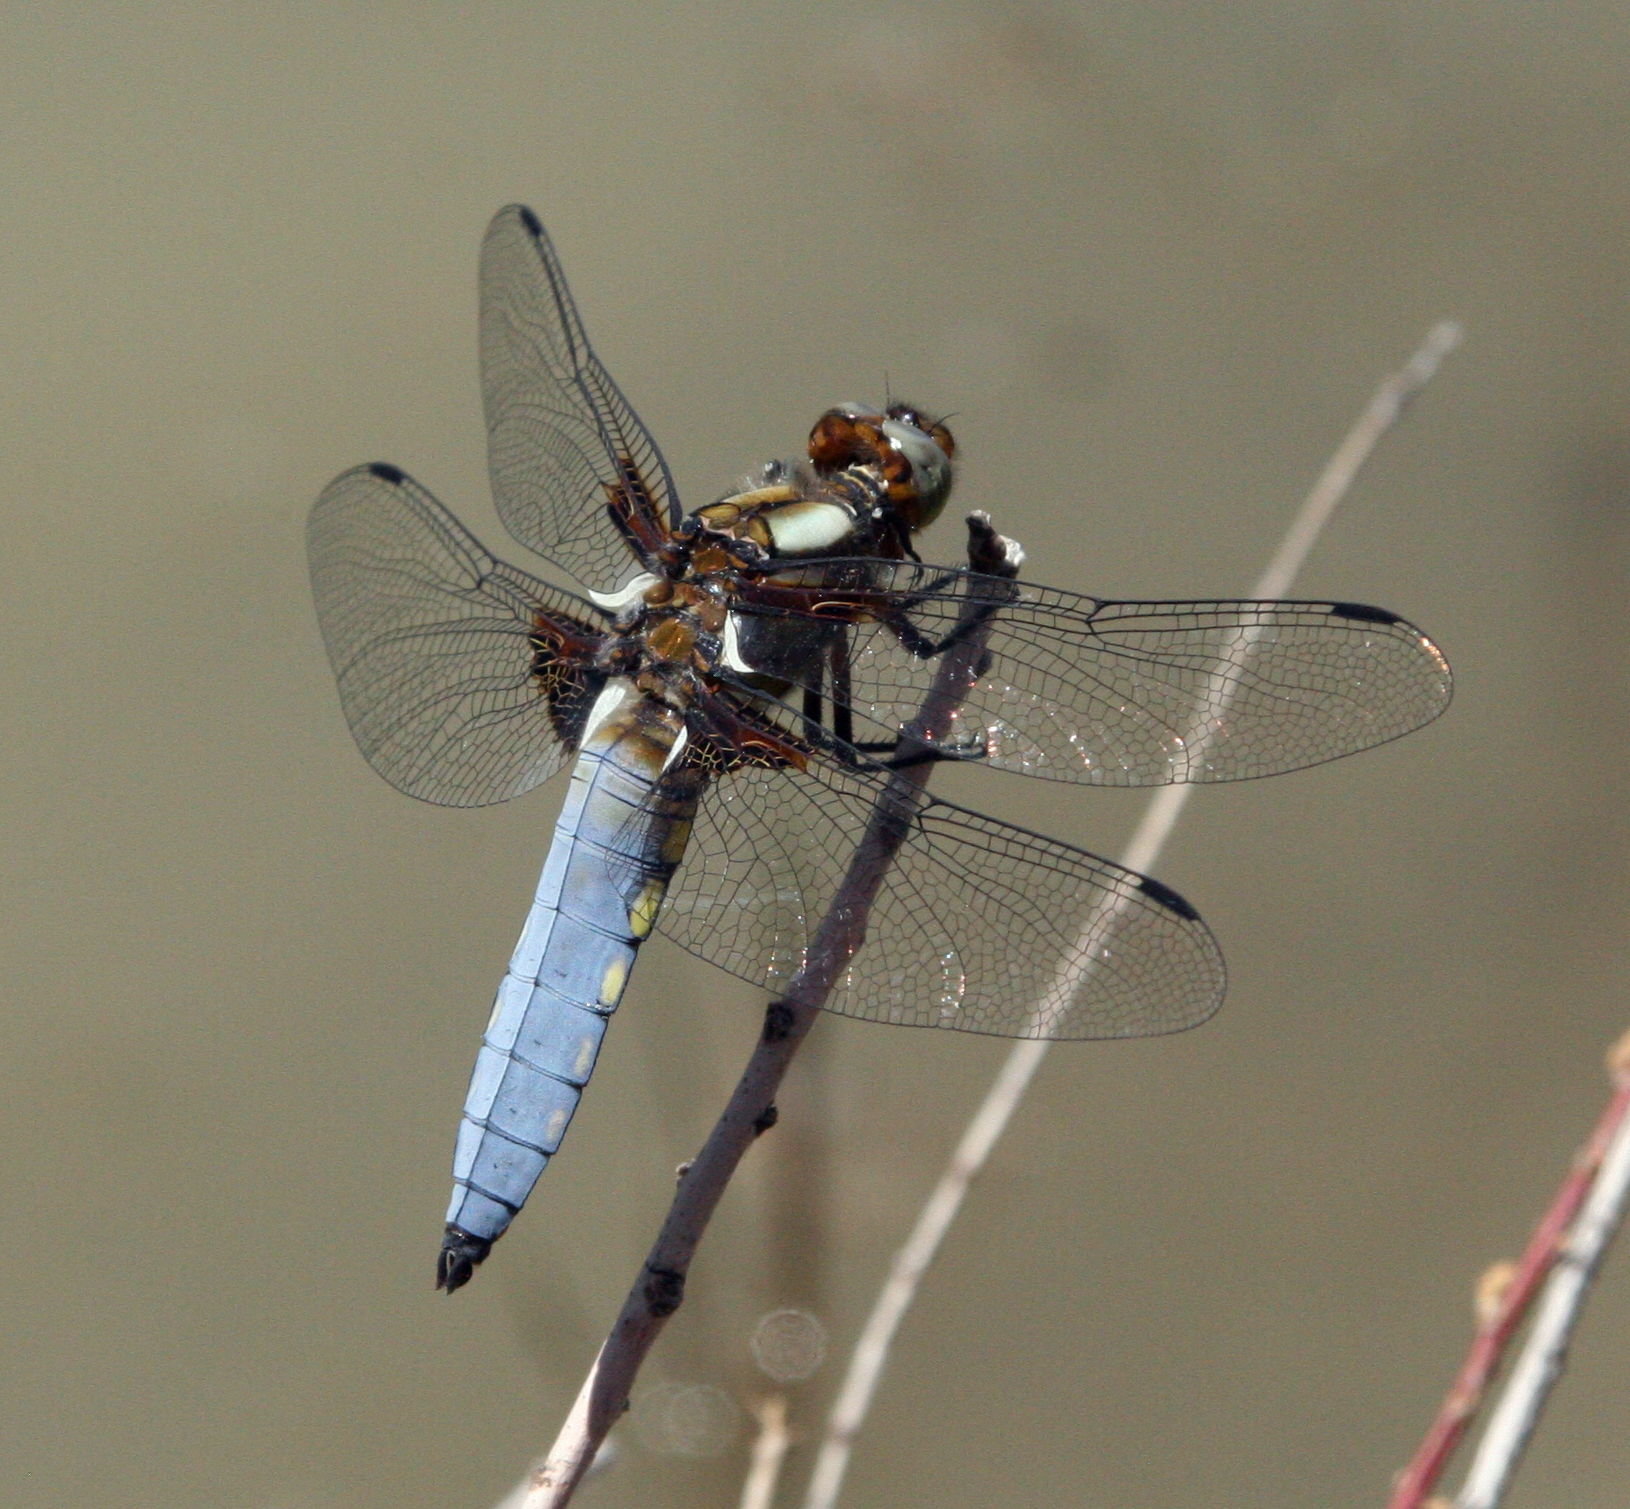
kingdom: Animalia
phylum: Arthropoda
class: Insecta
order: Odonata
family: Libellulidae
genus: Libellula
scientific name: Libellula depressa
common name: Broad-bodied chaser
